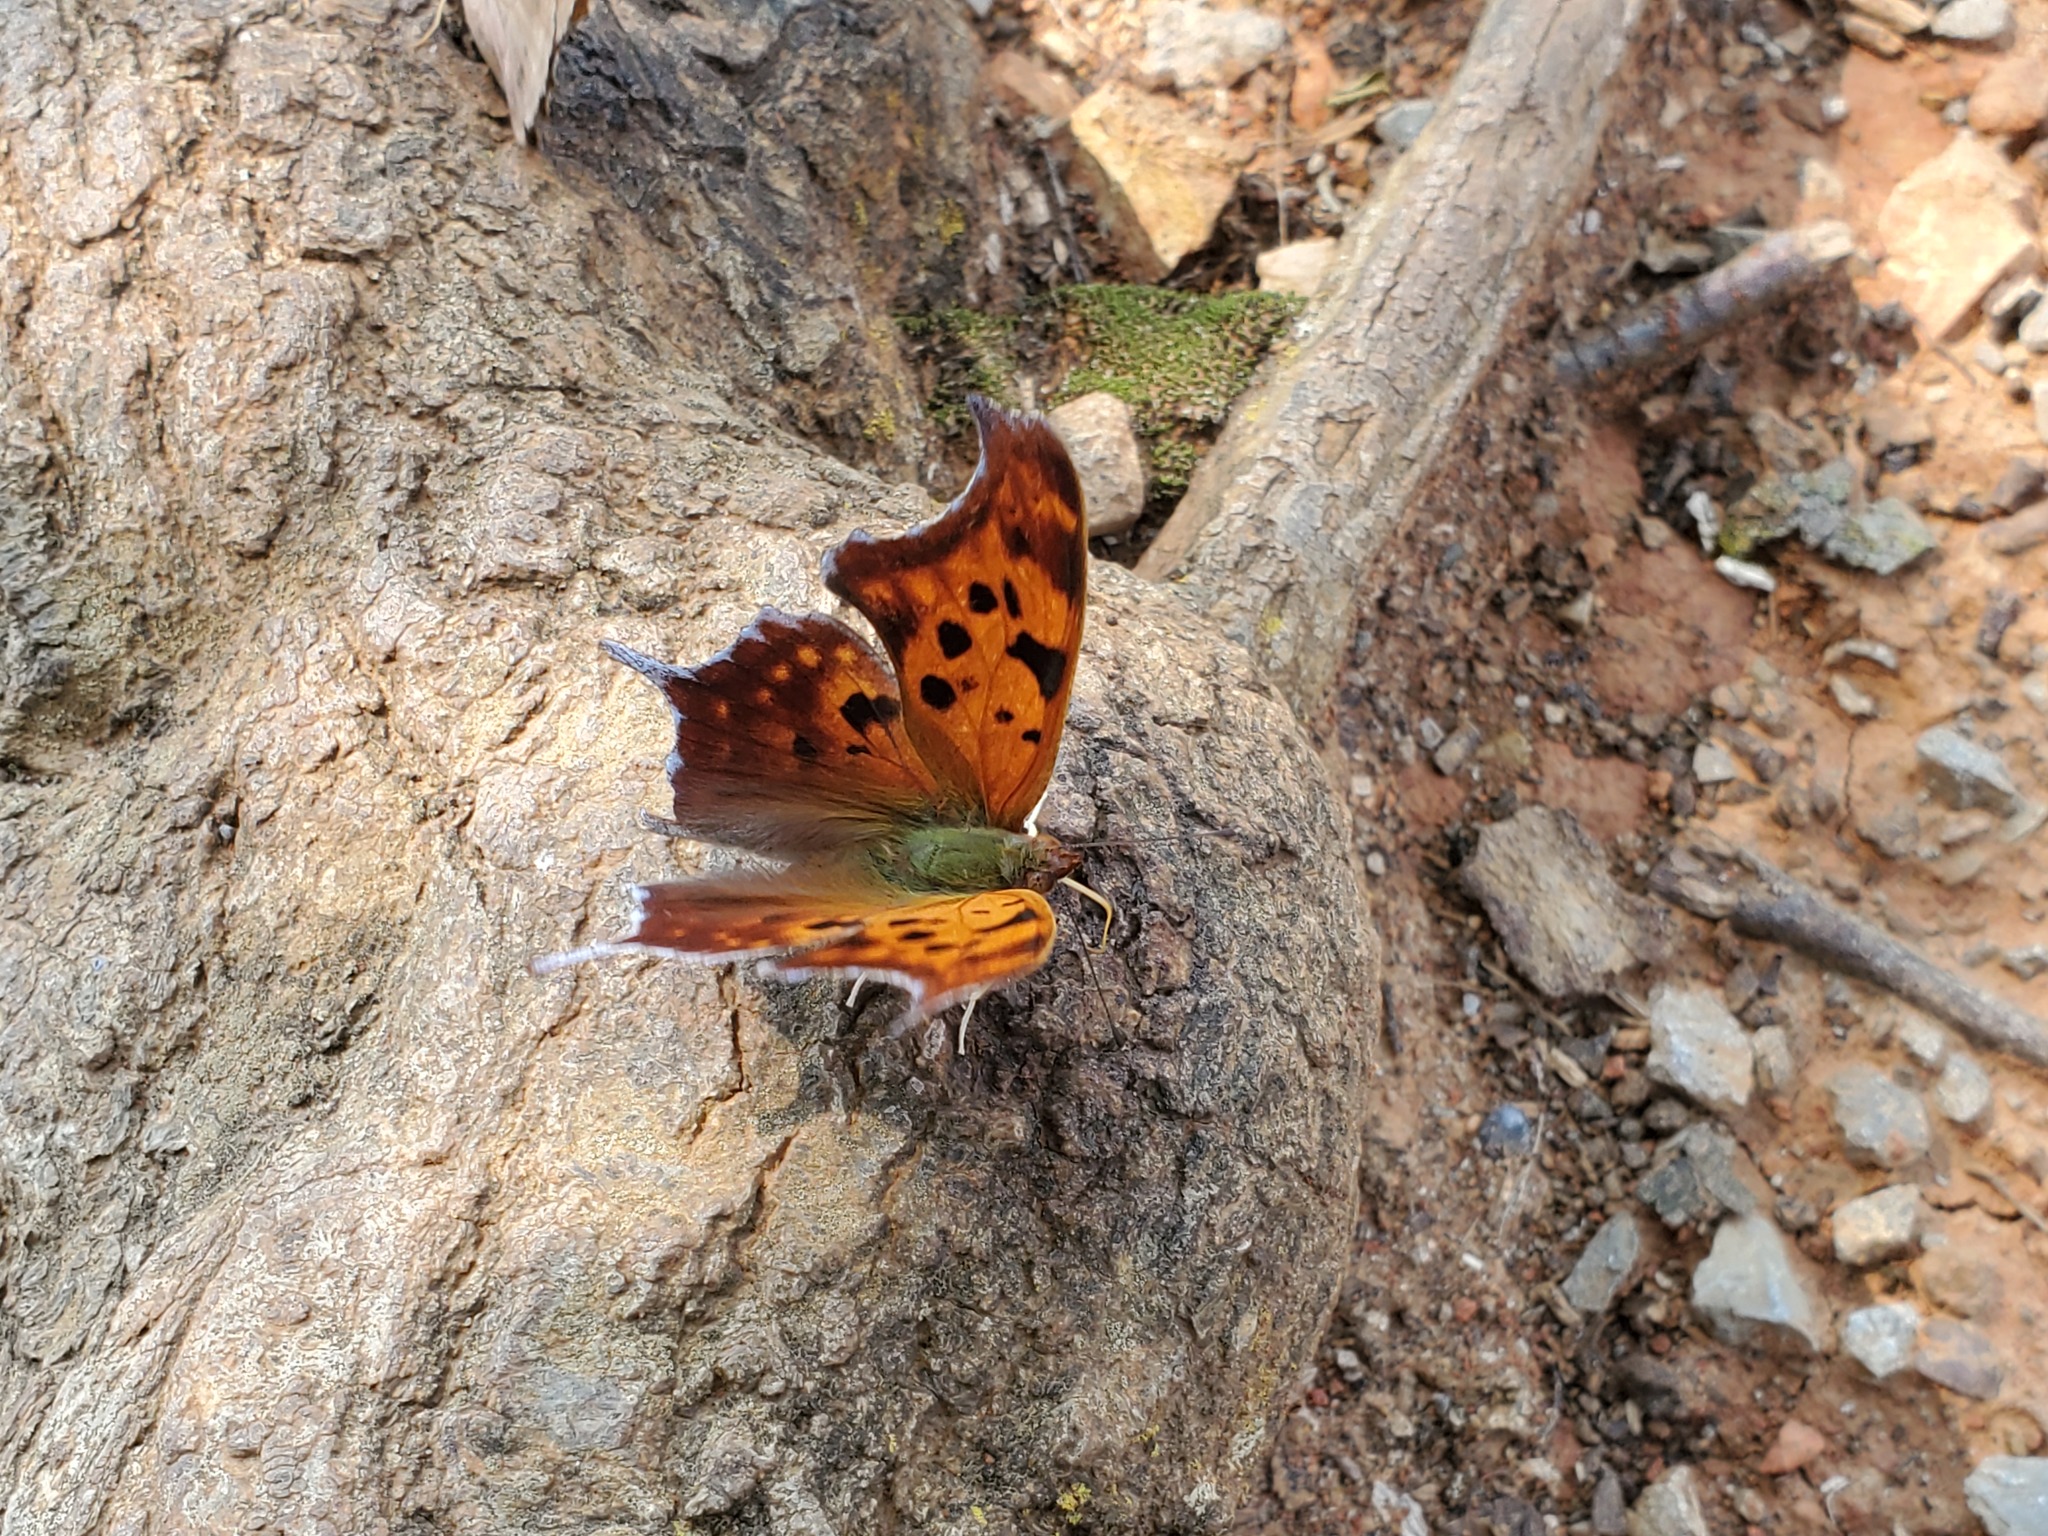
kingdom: Animalia
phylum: Arthropoda
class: Insecta
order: Lepidoptera
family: Nymphalidae
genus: Polygonia
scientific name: Polygonia interrogationis
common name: Question mark
